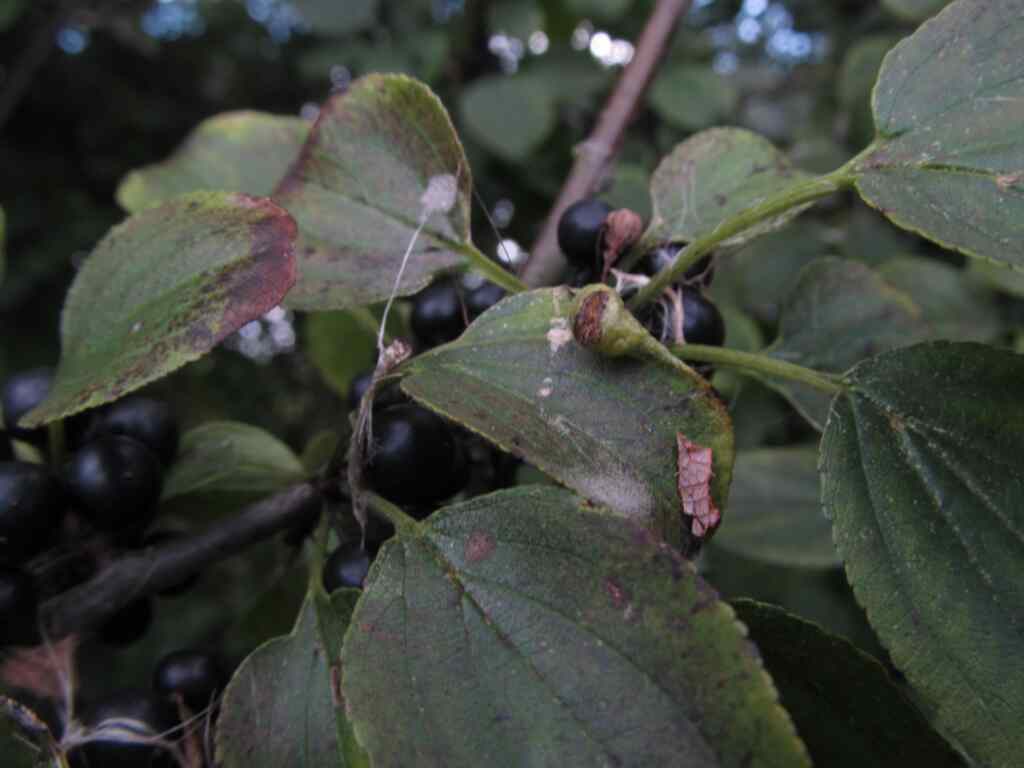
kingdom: Animalia
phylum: Arthropoda
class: Insecta
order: Hemiptera
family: Triozidae
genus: Trichochermes
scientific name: Trichochermes walkeri
